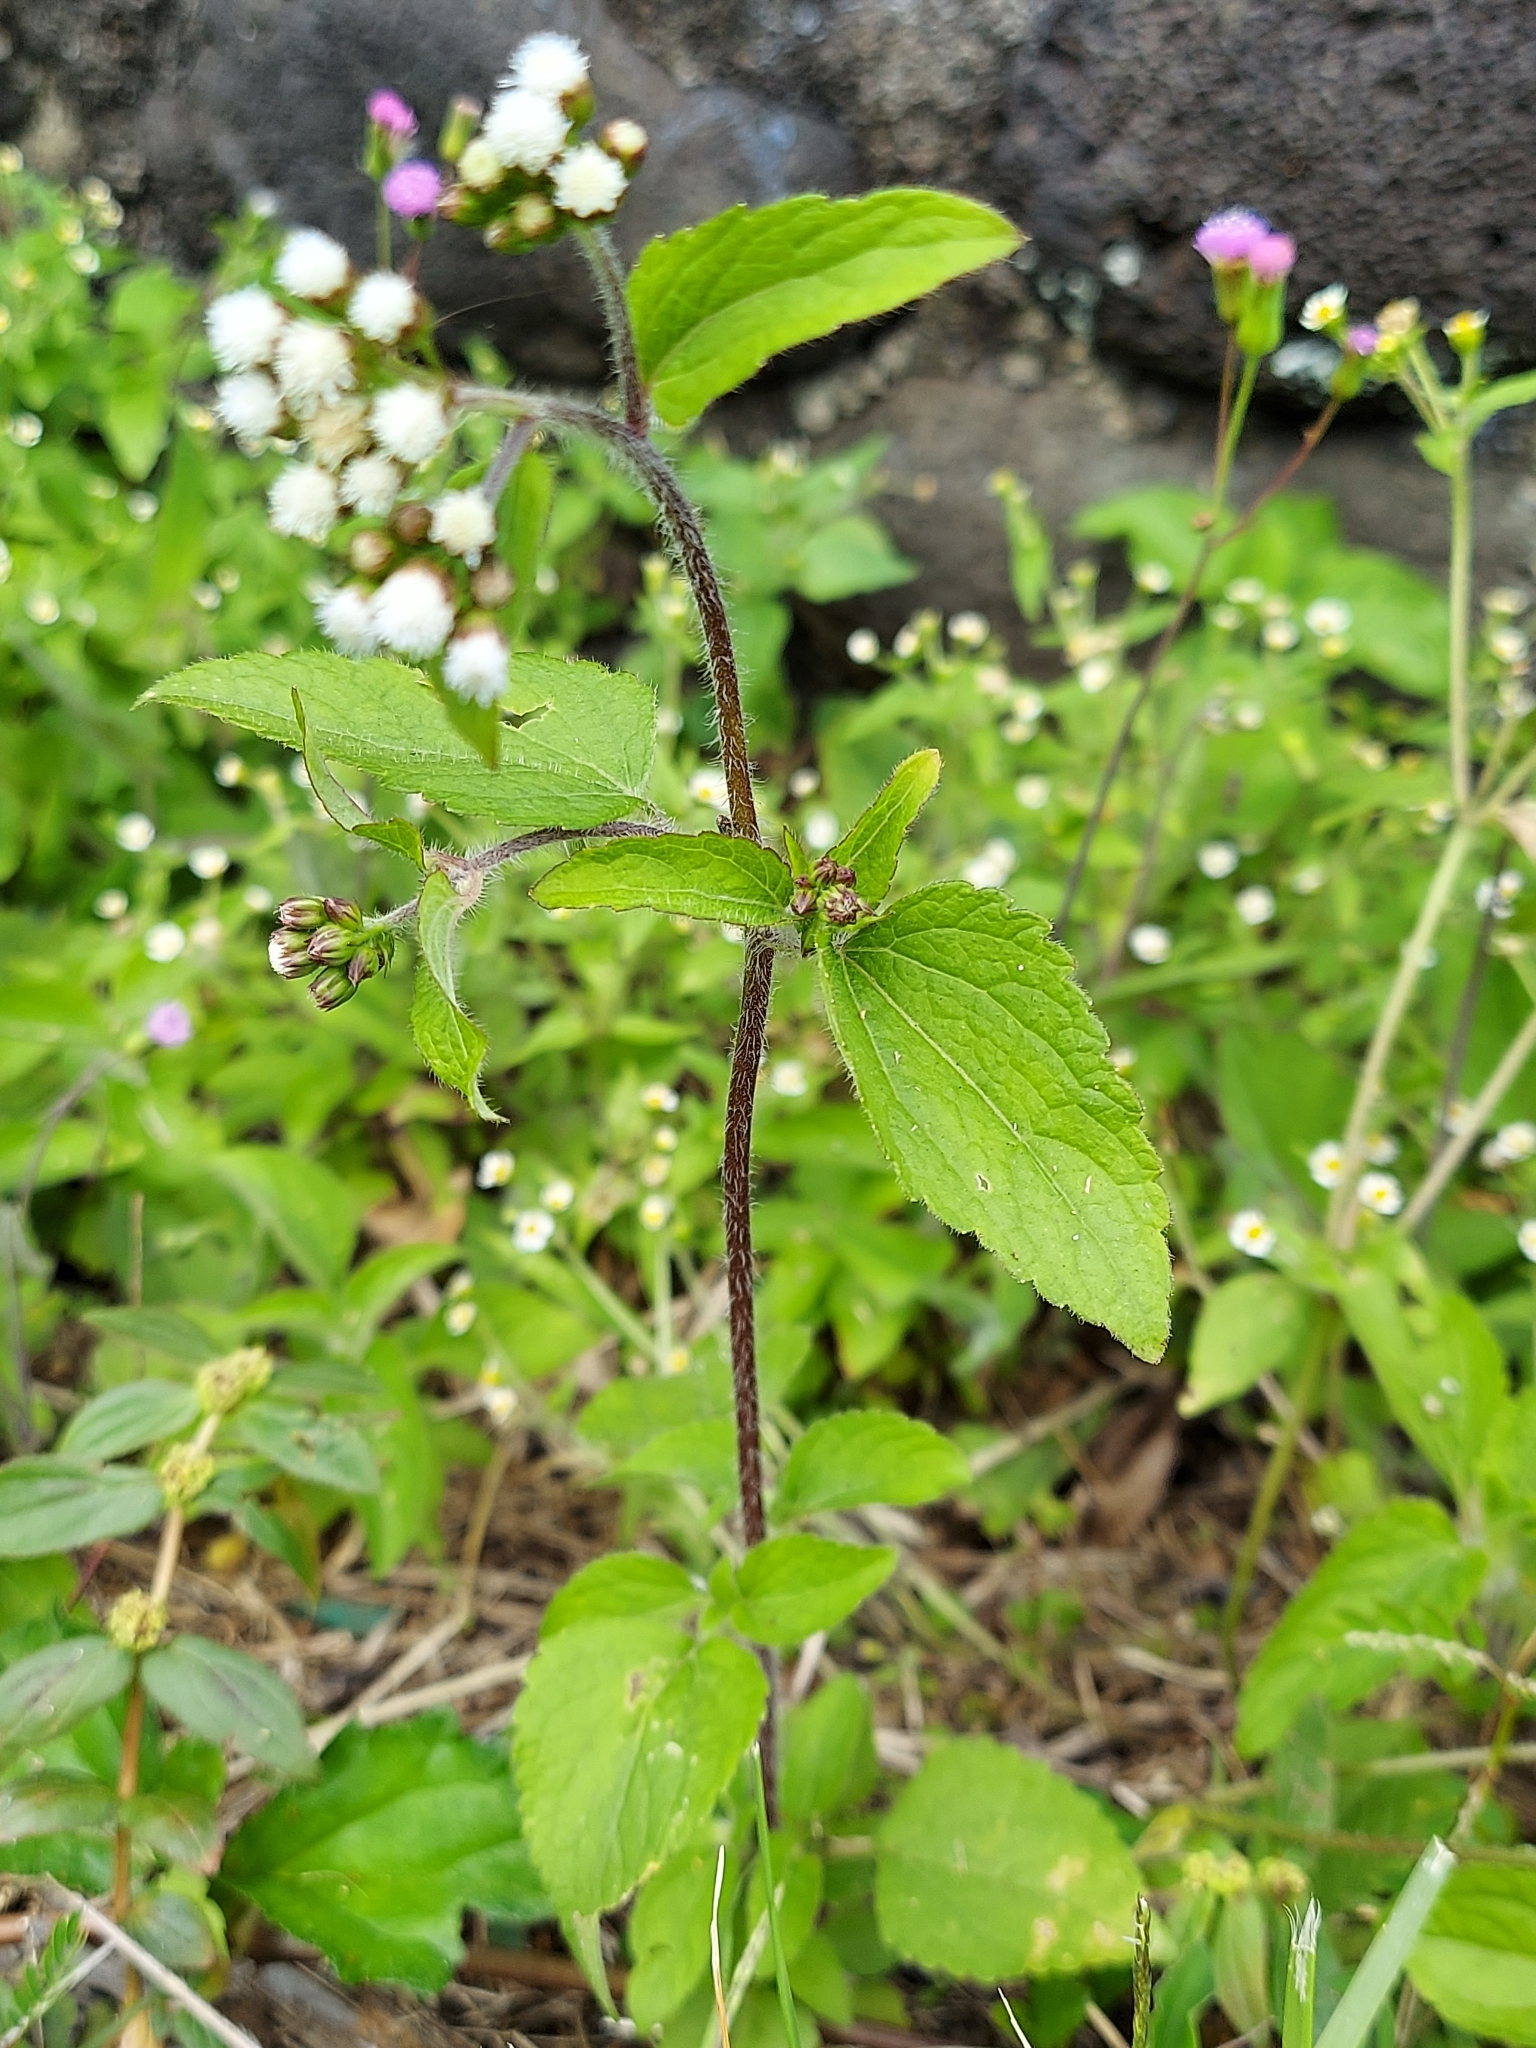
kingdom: Plantae
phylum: Tracheophyta
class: Magnoliopsida
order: Asterales
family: Asteraceae
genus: Ageratum
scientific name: Ageratum conyzoides
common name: Tropical whiteweed
